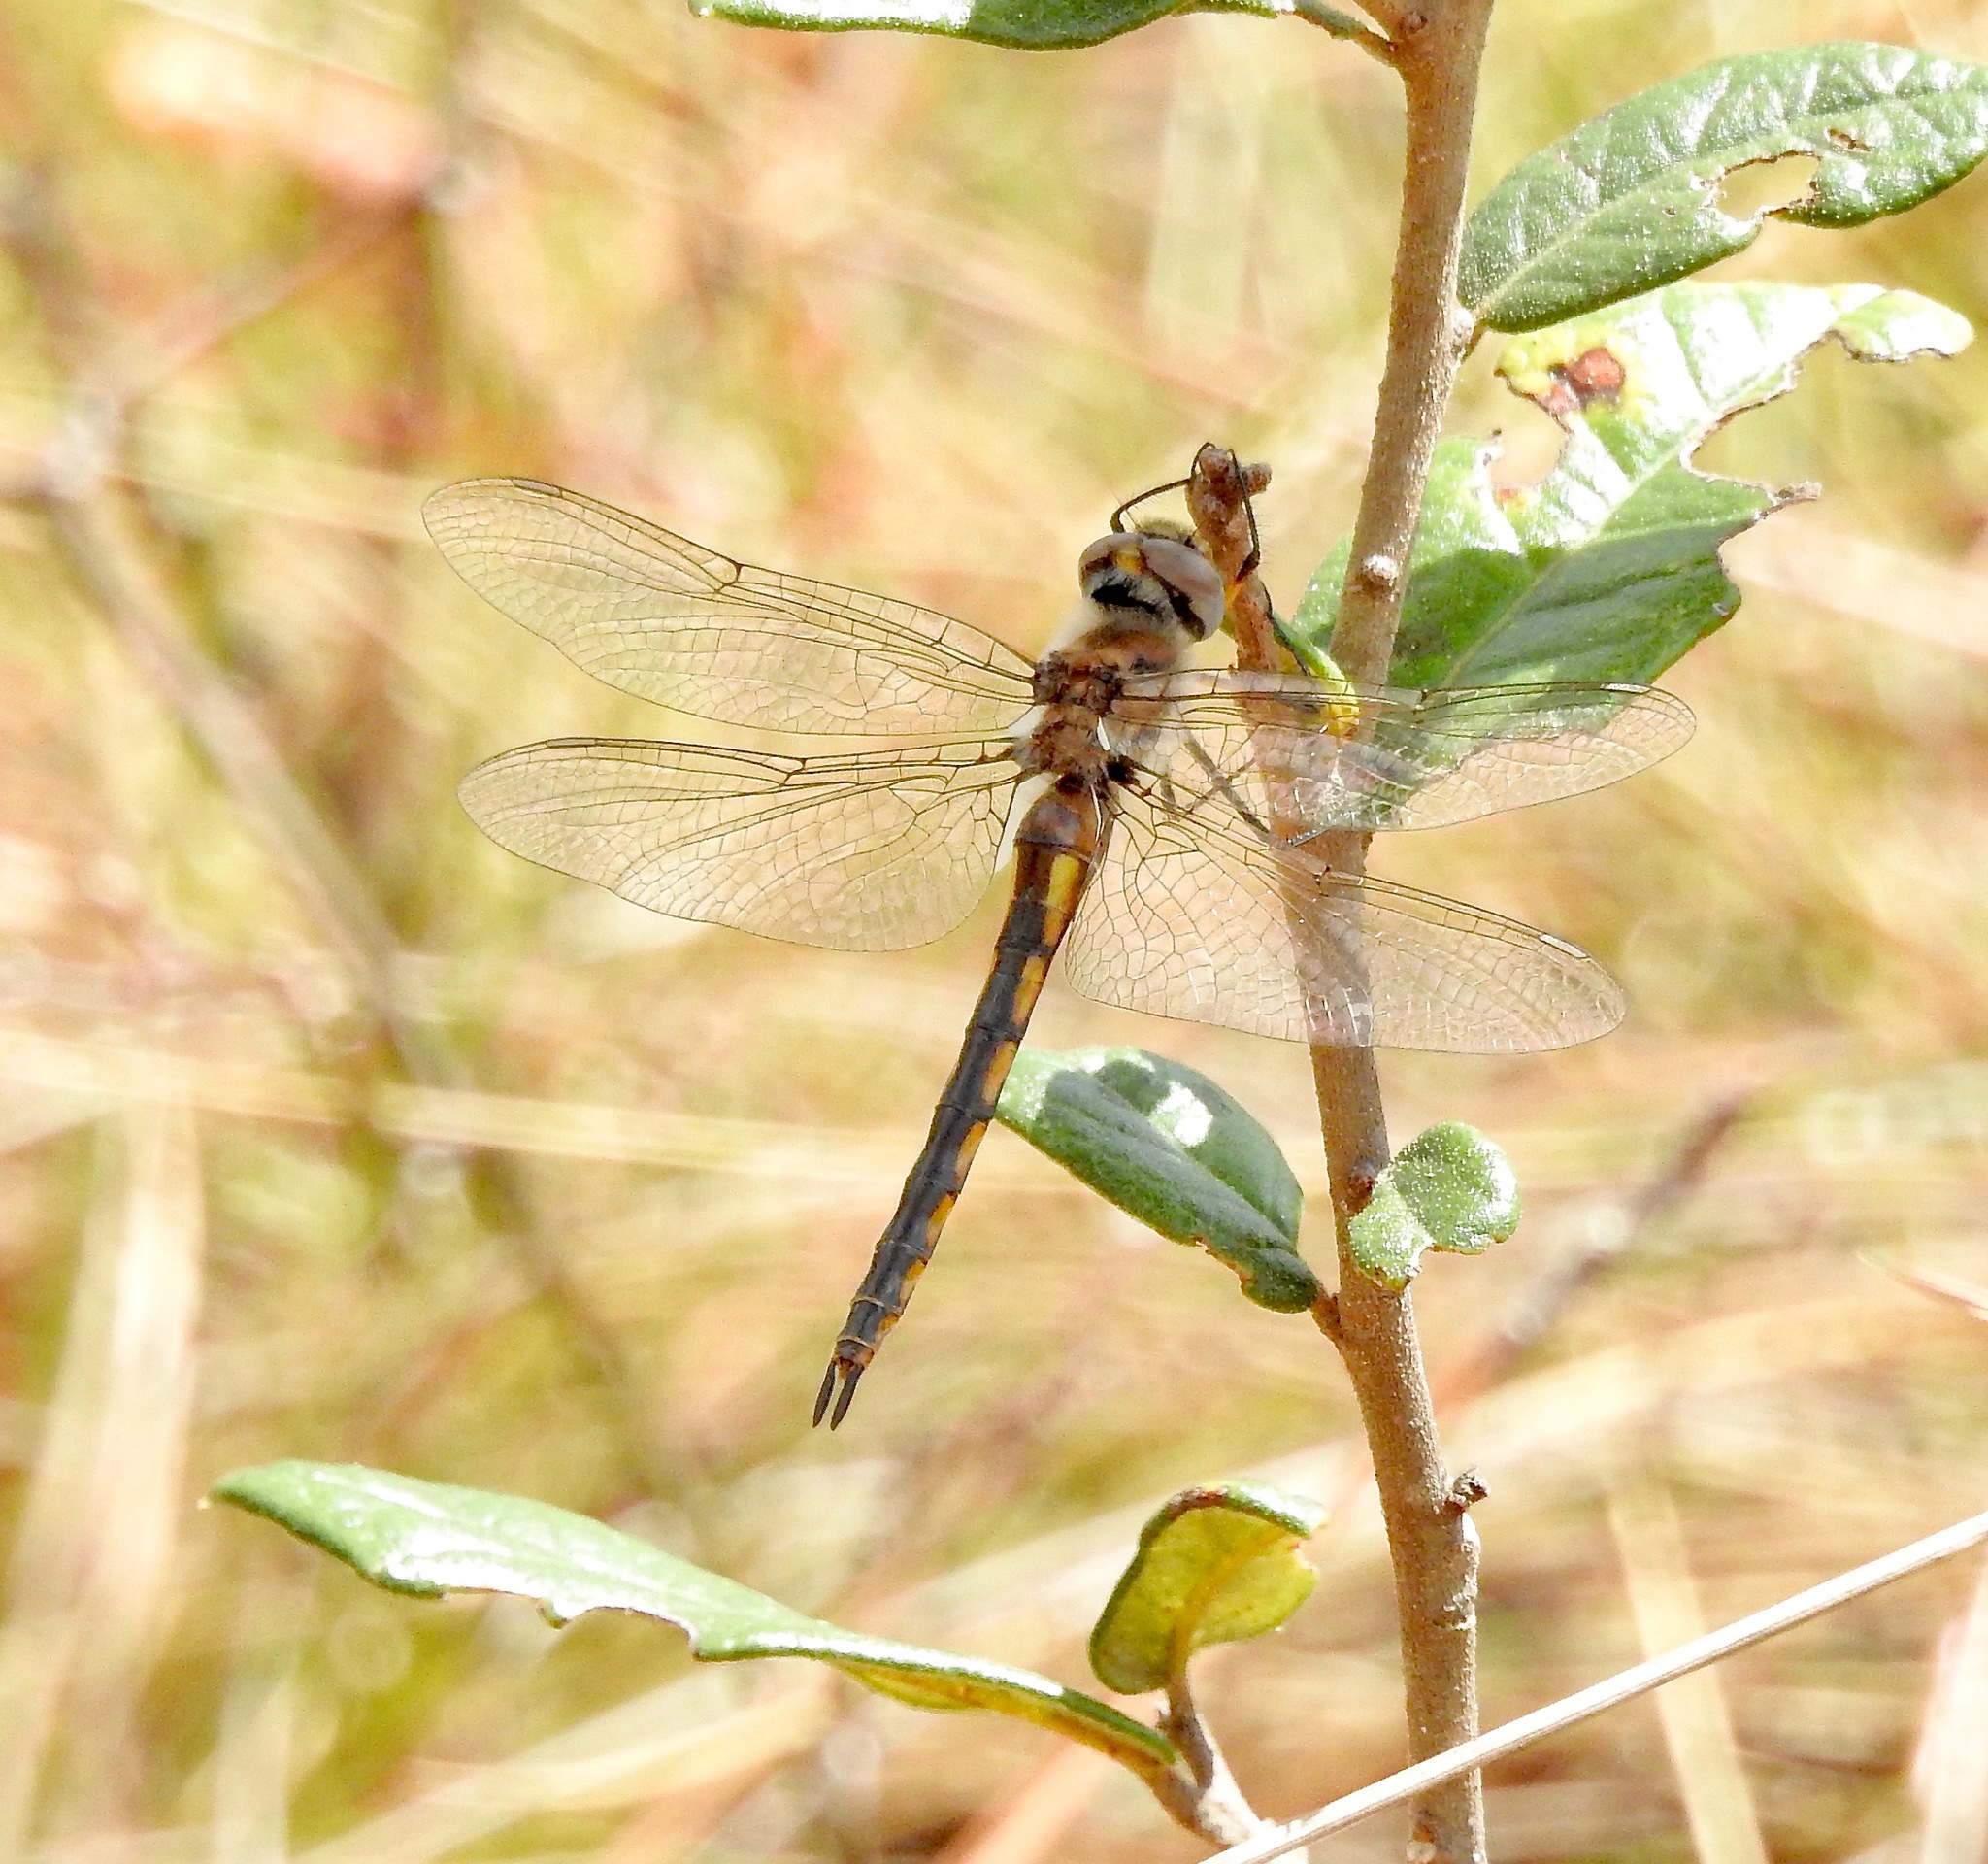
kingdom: Animalia
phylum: Arthropoda
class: Insecta
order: Odonata
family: Corduliidae
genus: Epitheca
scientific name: Epitheca costalis
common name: Slender baskettail
